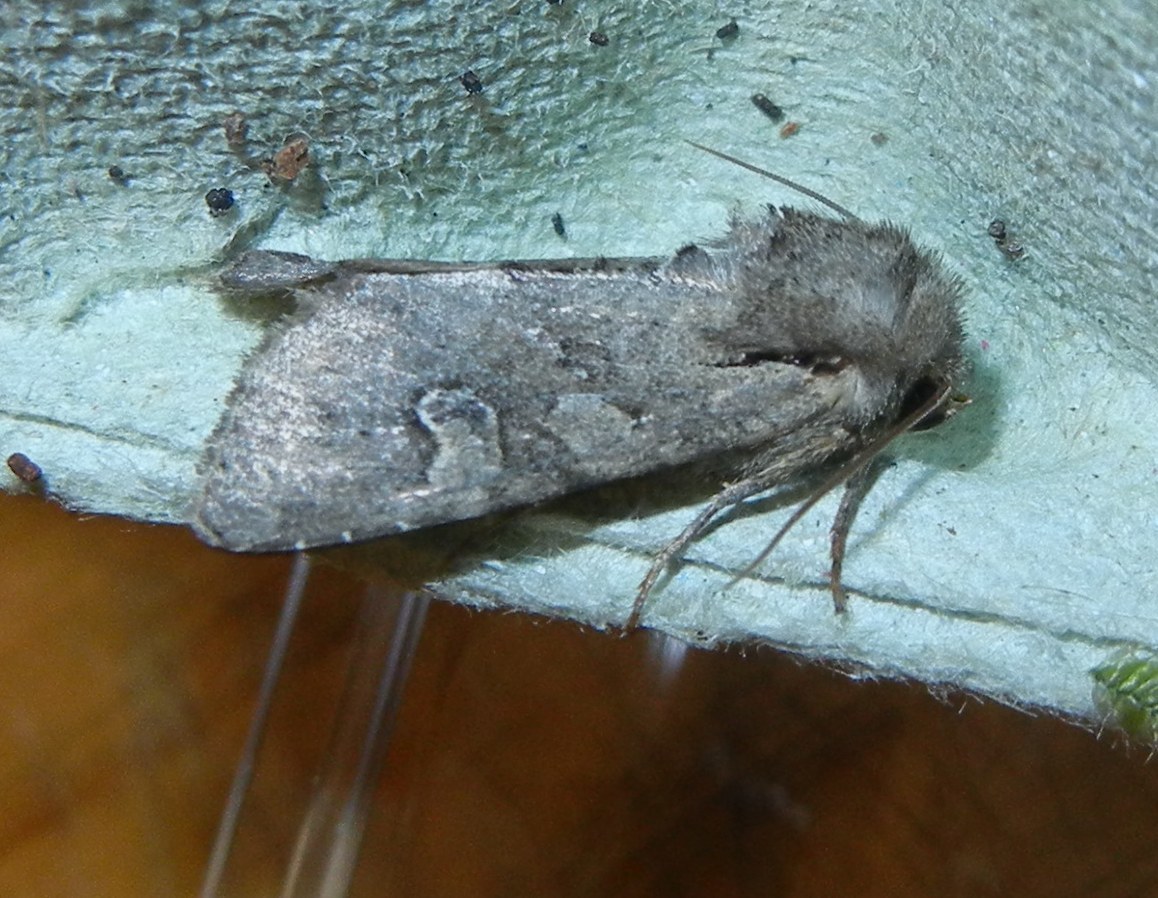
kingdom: Animalia
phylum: Arthropoda
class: Insecta
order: Lepidoptera
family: Noctuidae
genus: Apamea
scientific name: Apamea sordens
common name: Rustic shoulder-knot
